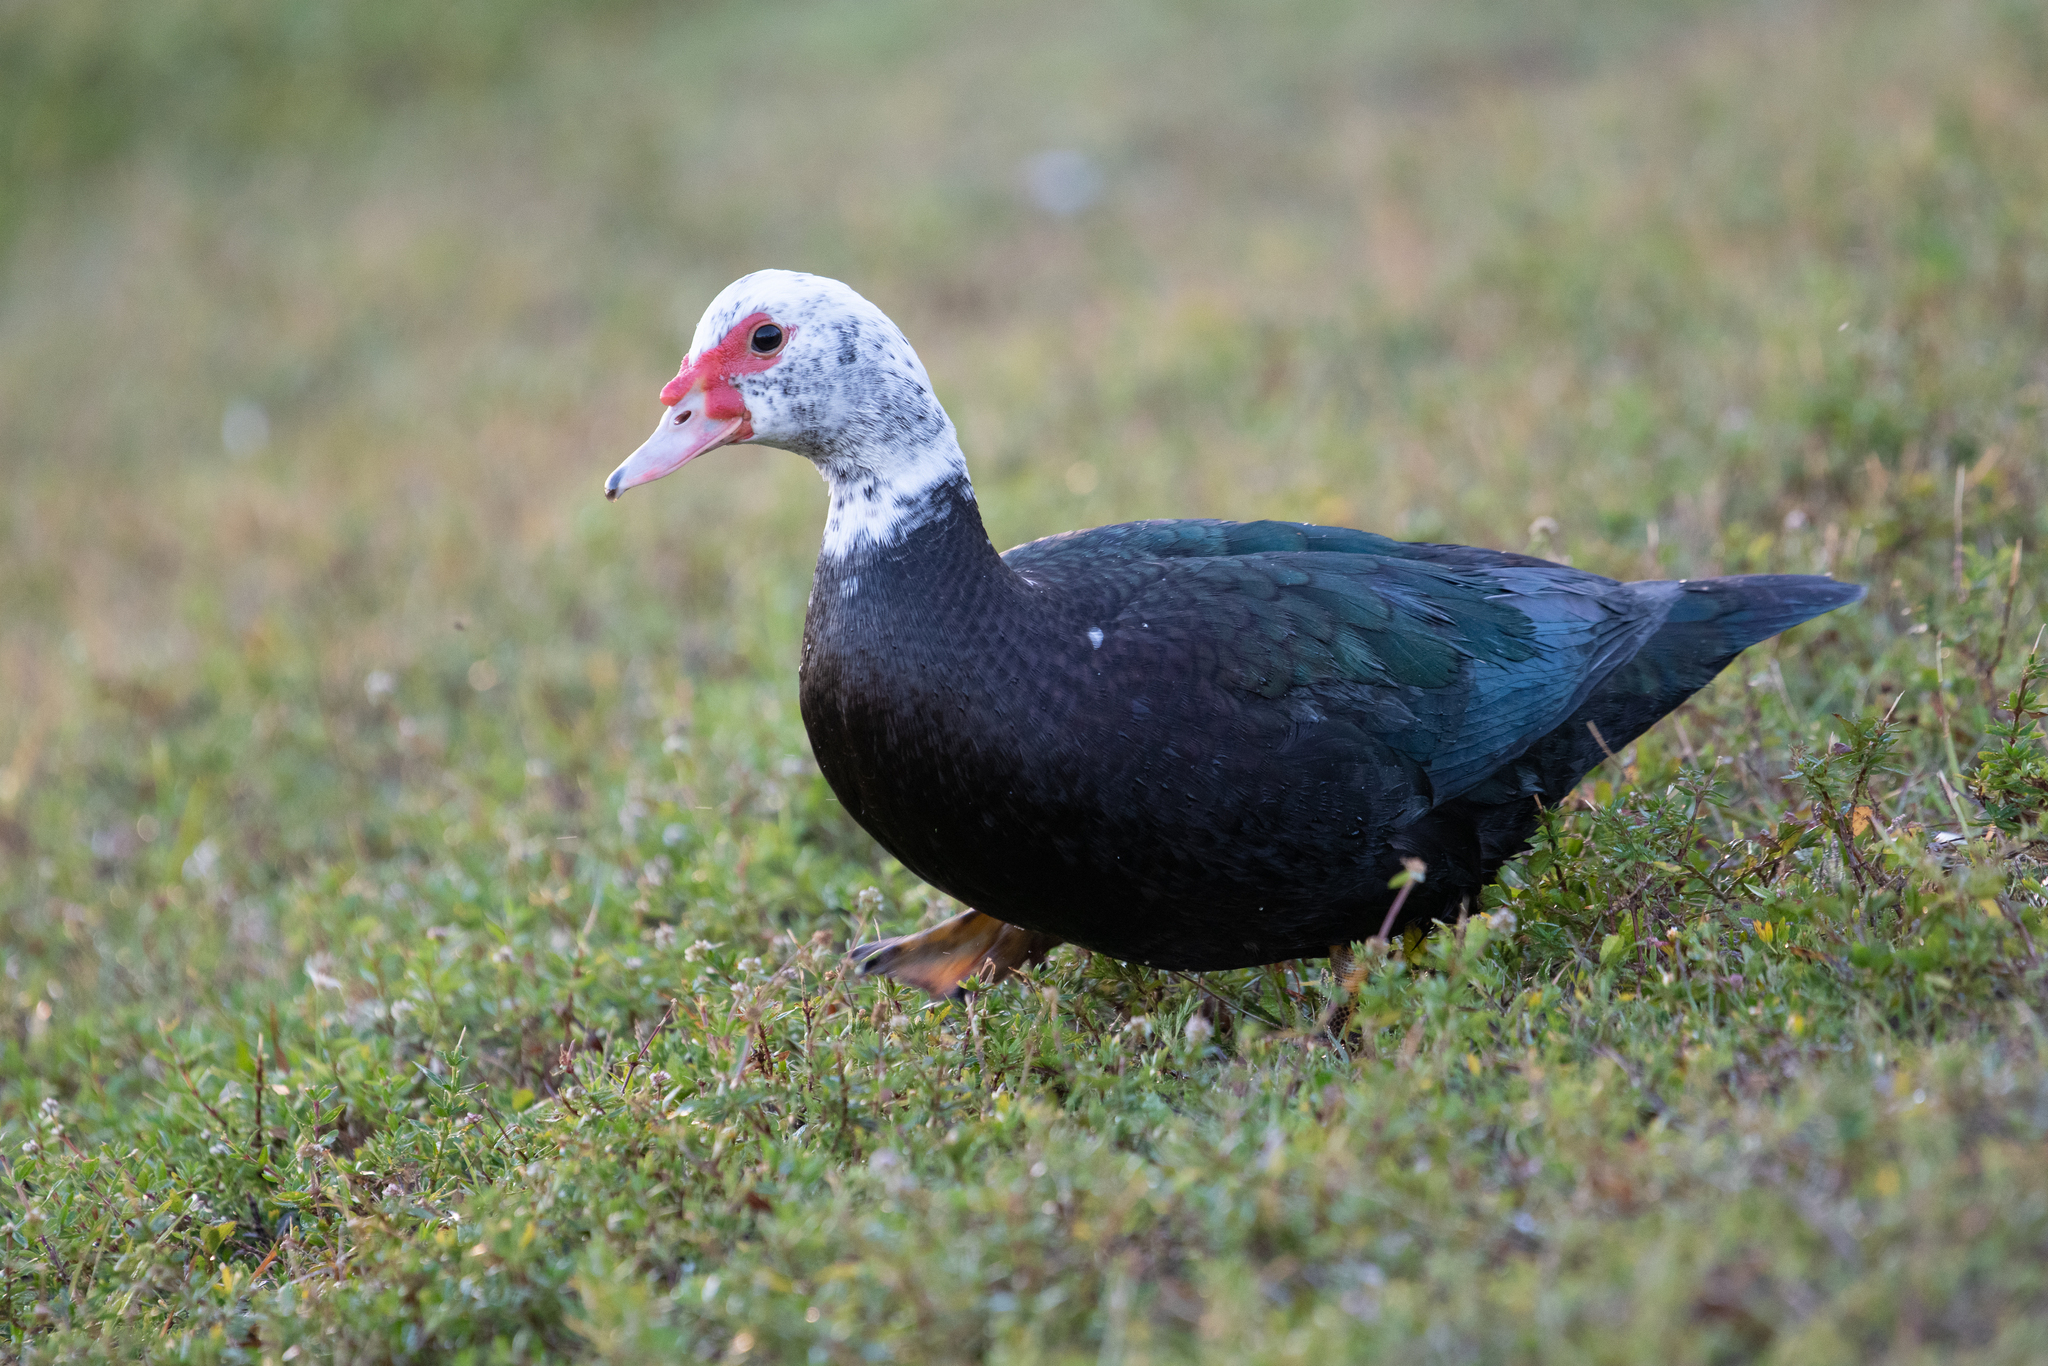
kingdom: Animalia
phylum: Chordata
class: Aves
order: Anseriformes
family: Anatidae
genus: Cairina
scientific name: Cairina moschata
